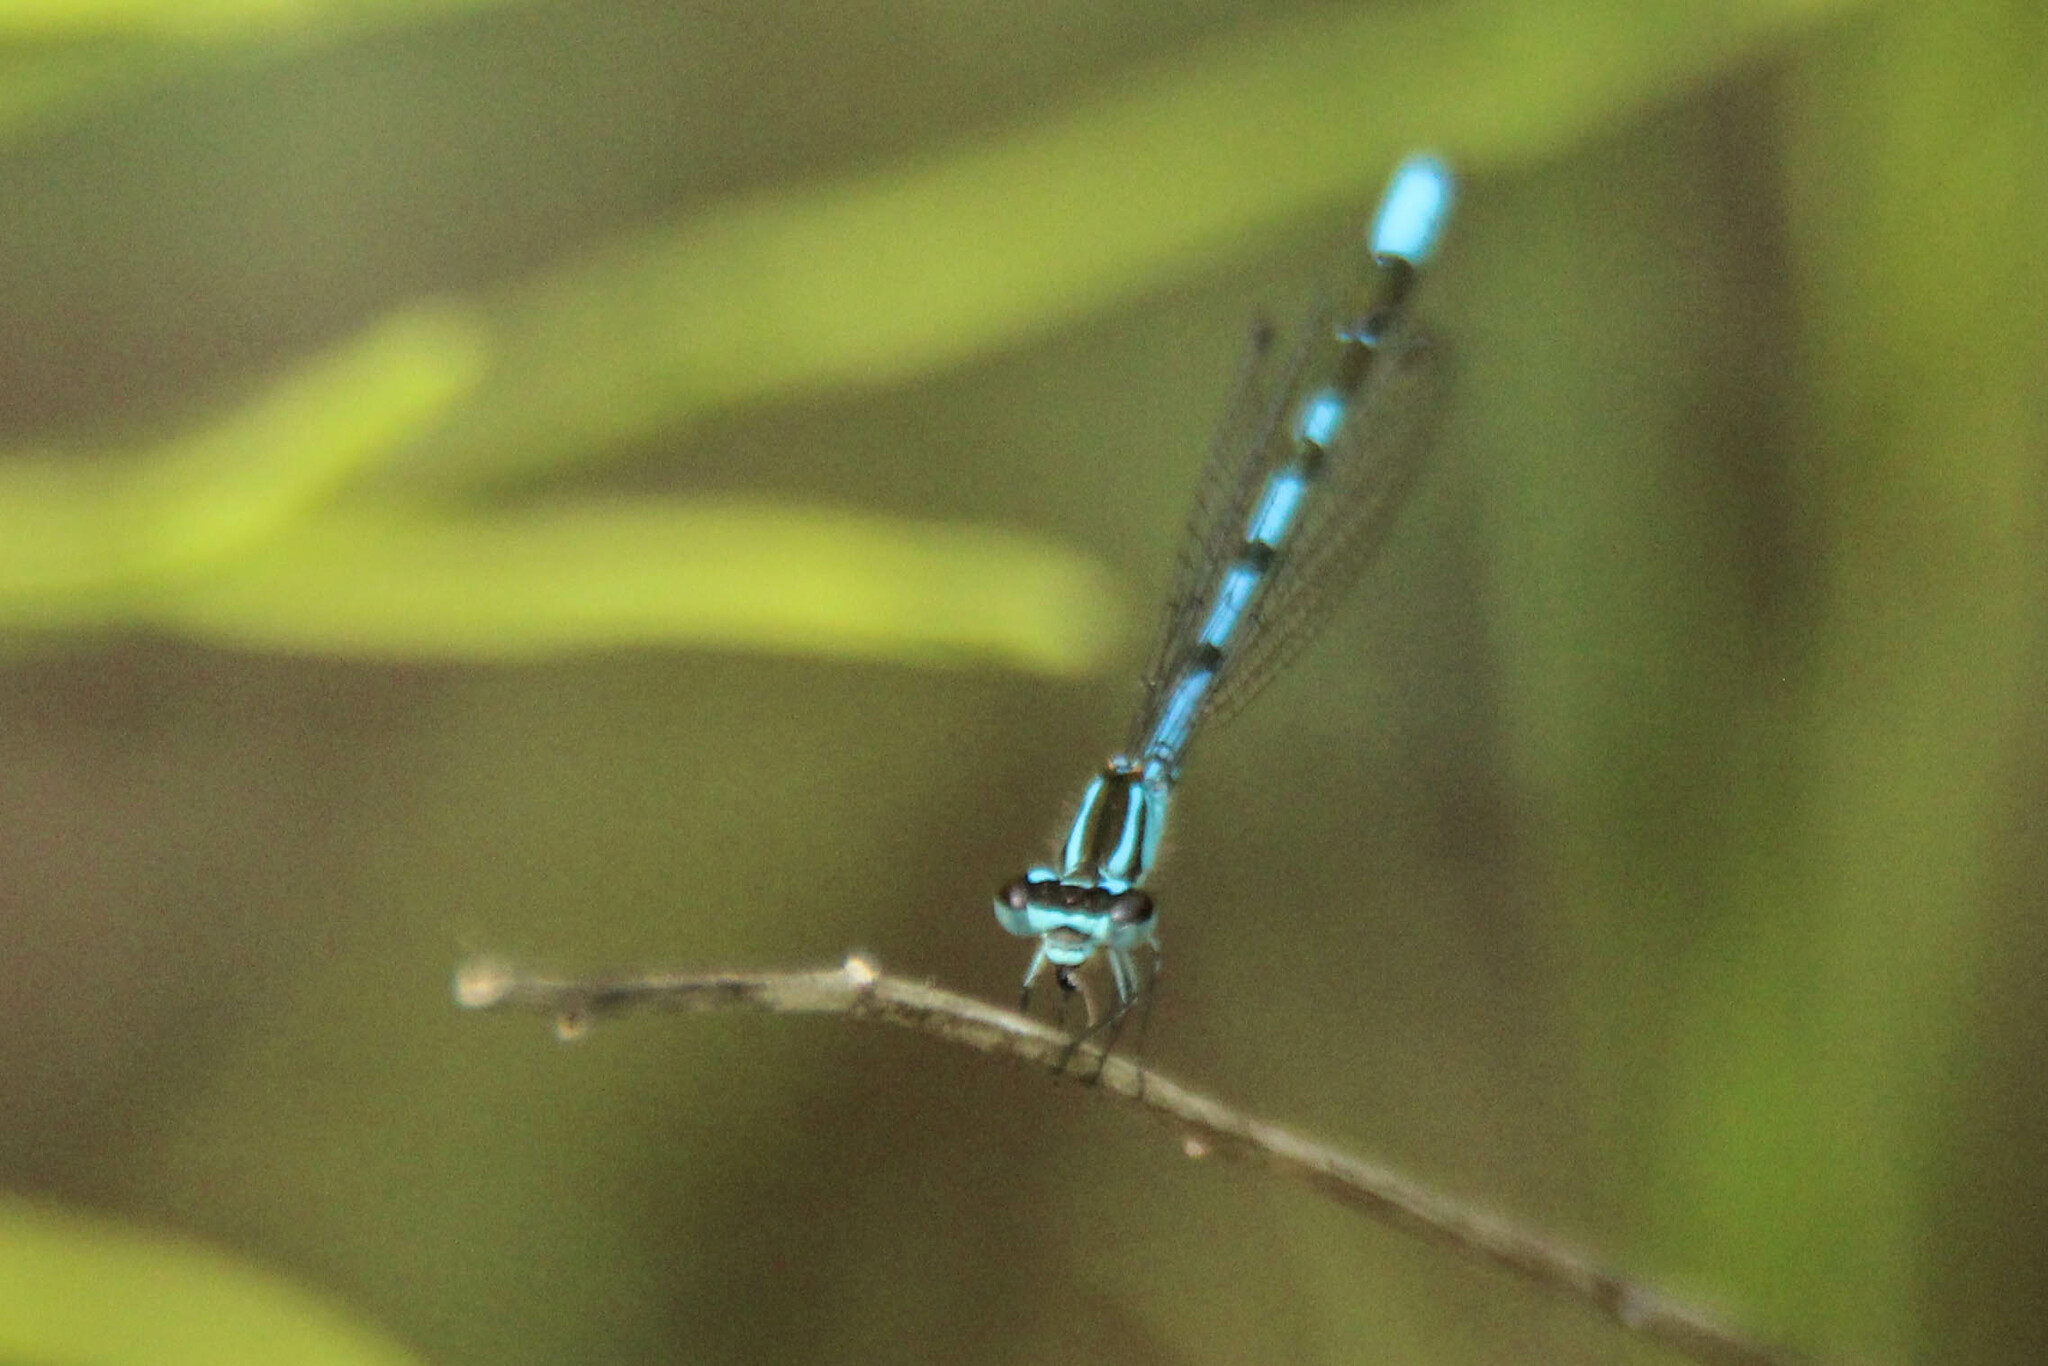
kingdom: Animalia
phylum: Arthropoda
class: Insecta
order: Odonata
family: Coenagrionidae
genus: Coenagrion
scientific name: Coenagrion johanssoni
